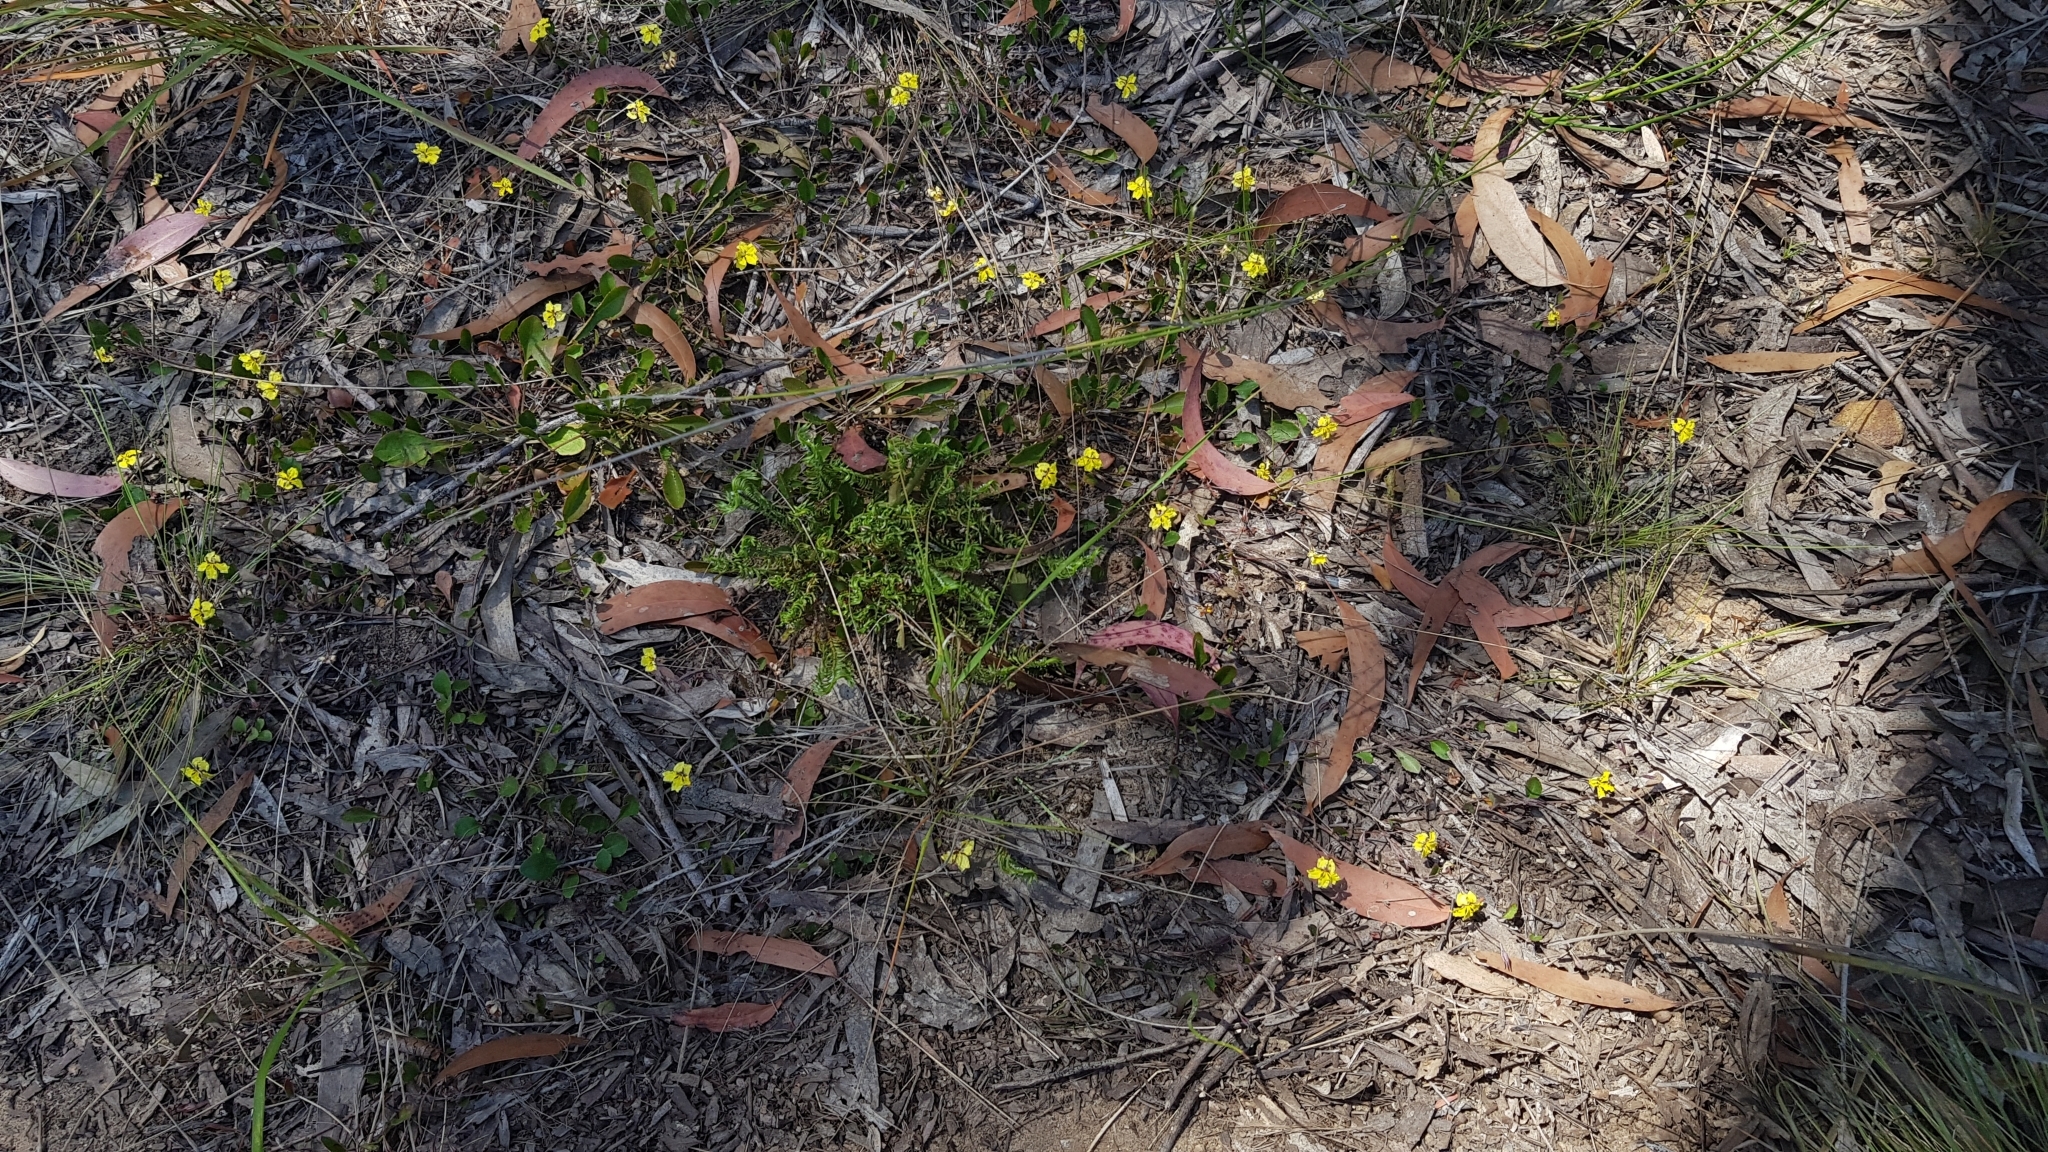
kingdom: Plantae
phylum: Tracheophyta
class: Magnoliopsida
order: Asterales
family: Goodeniaceae
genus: Goodenia
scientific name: Goodenia hederacea
